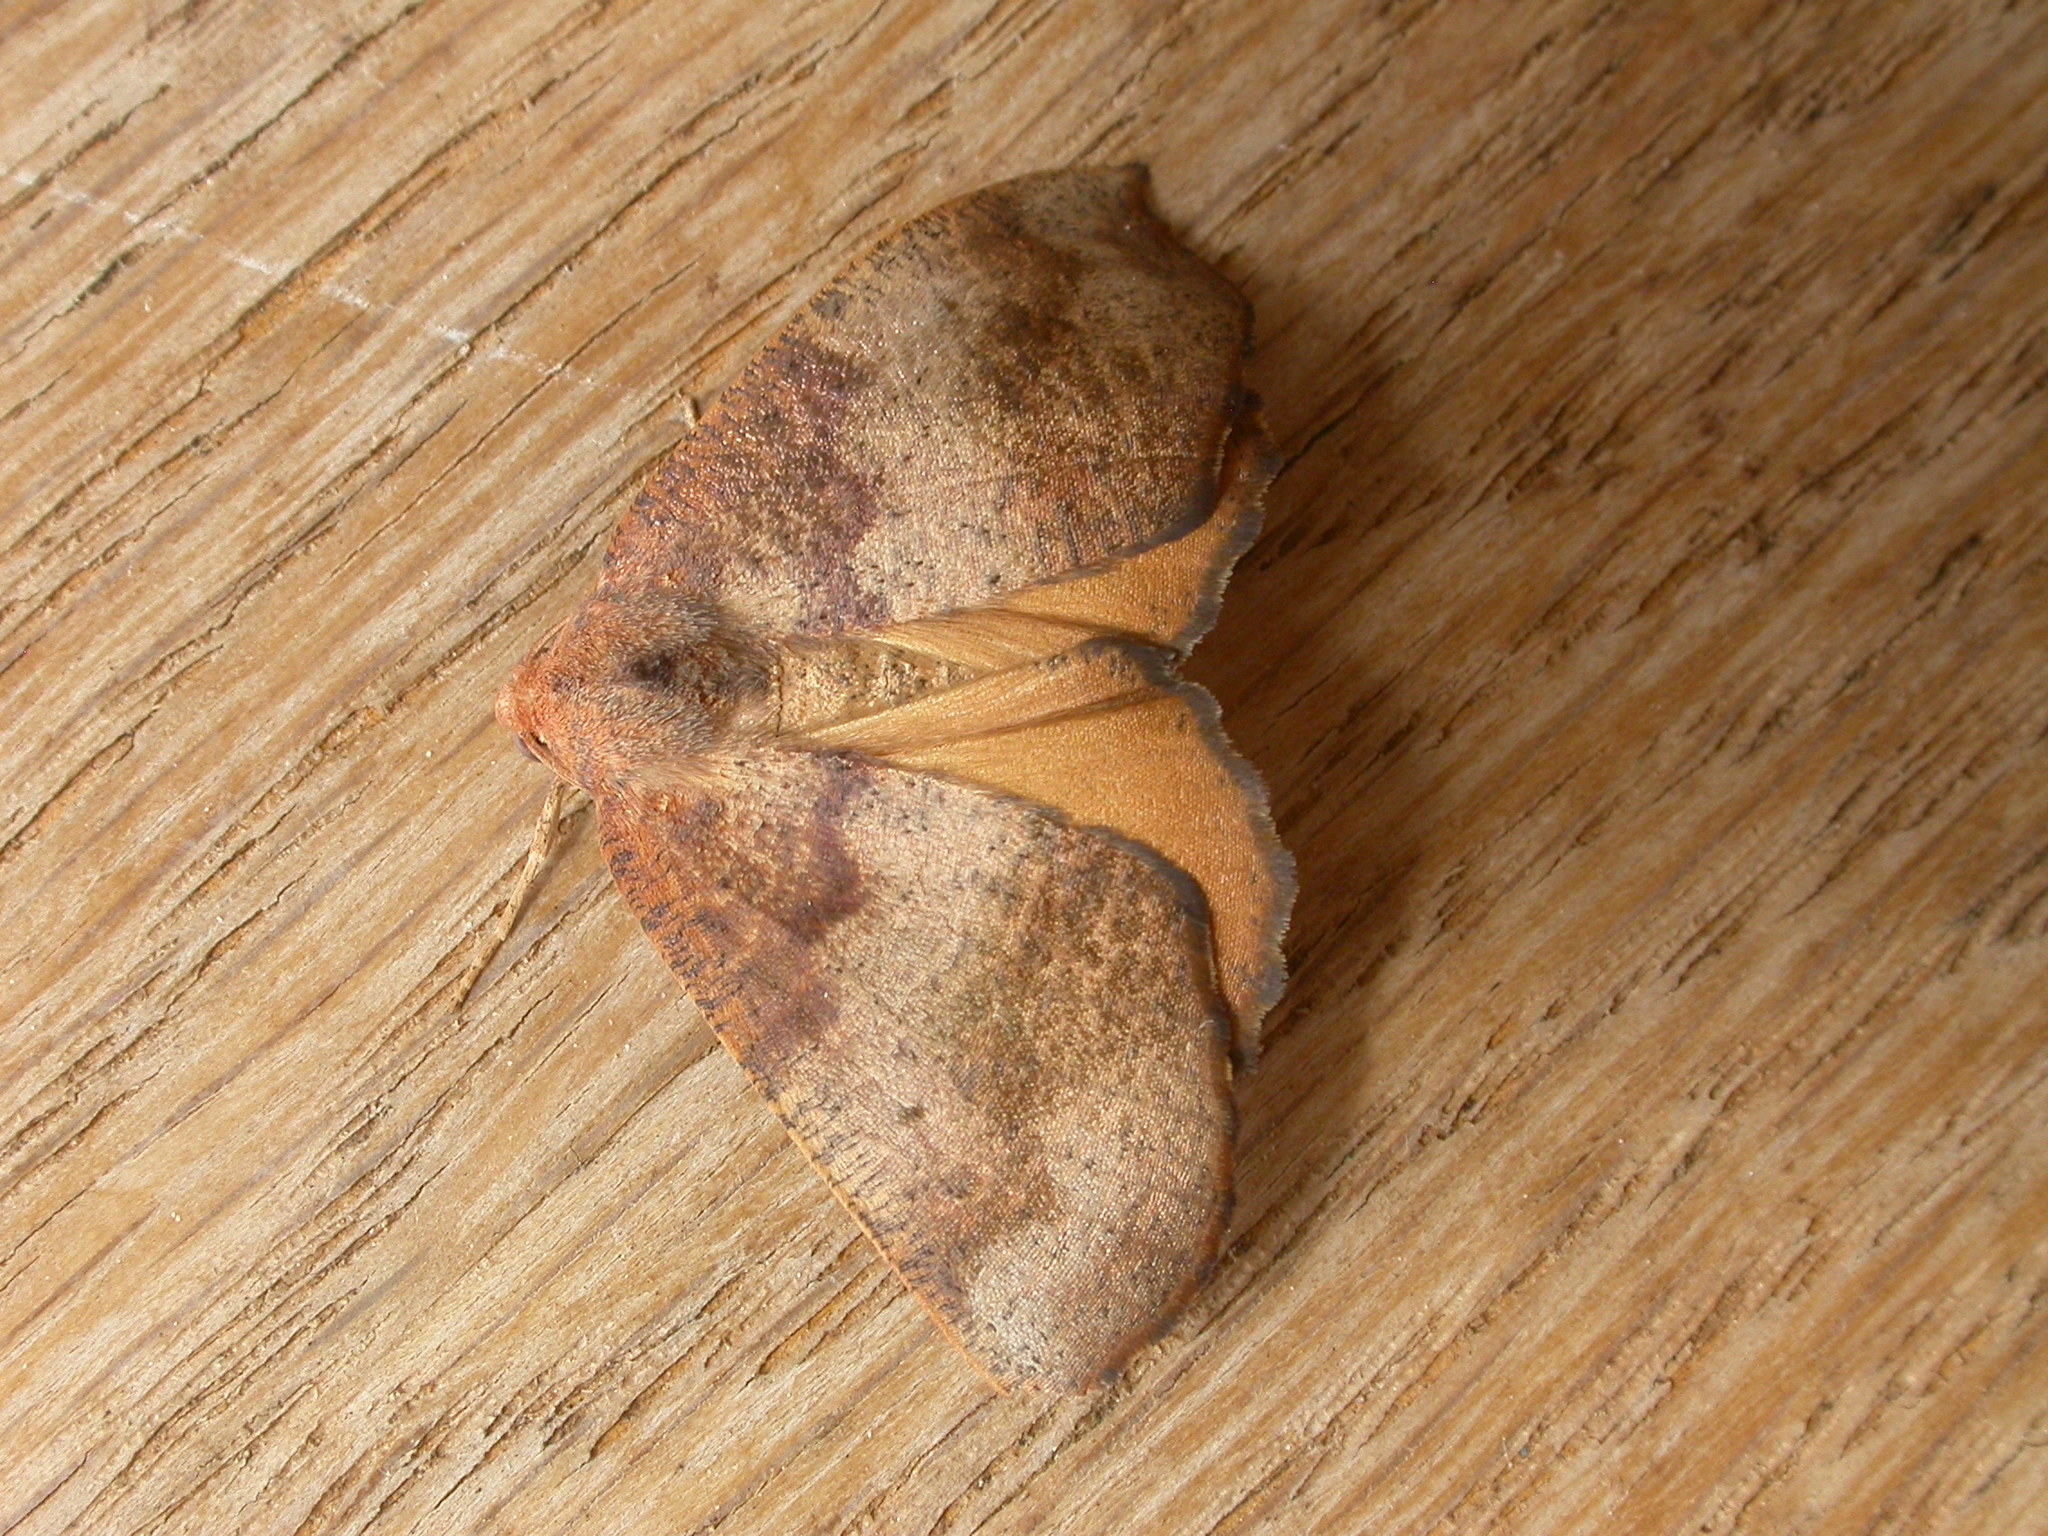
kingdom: Animalia
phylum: Arthropoda
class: Insecta
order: Lepidoptera
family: Geometridae
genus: Mnesampela
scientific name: Mnesampela privata
